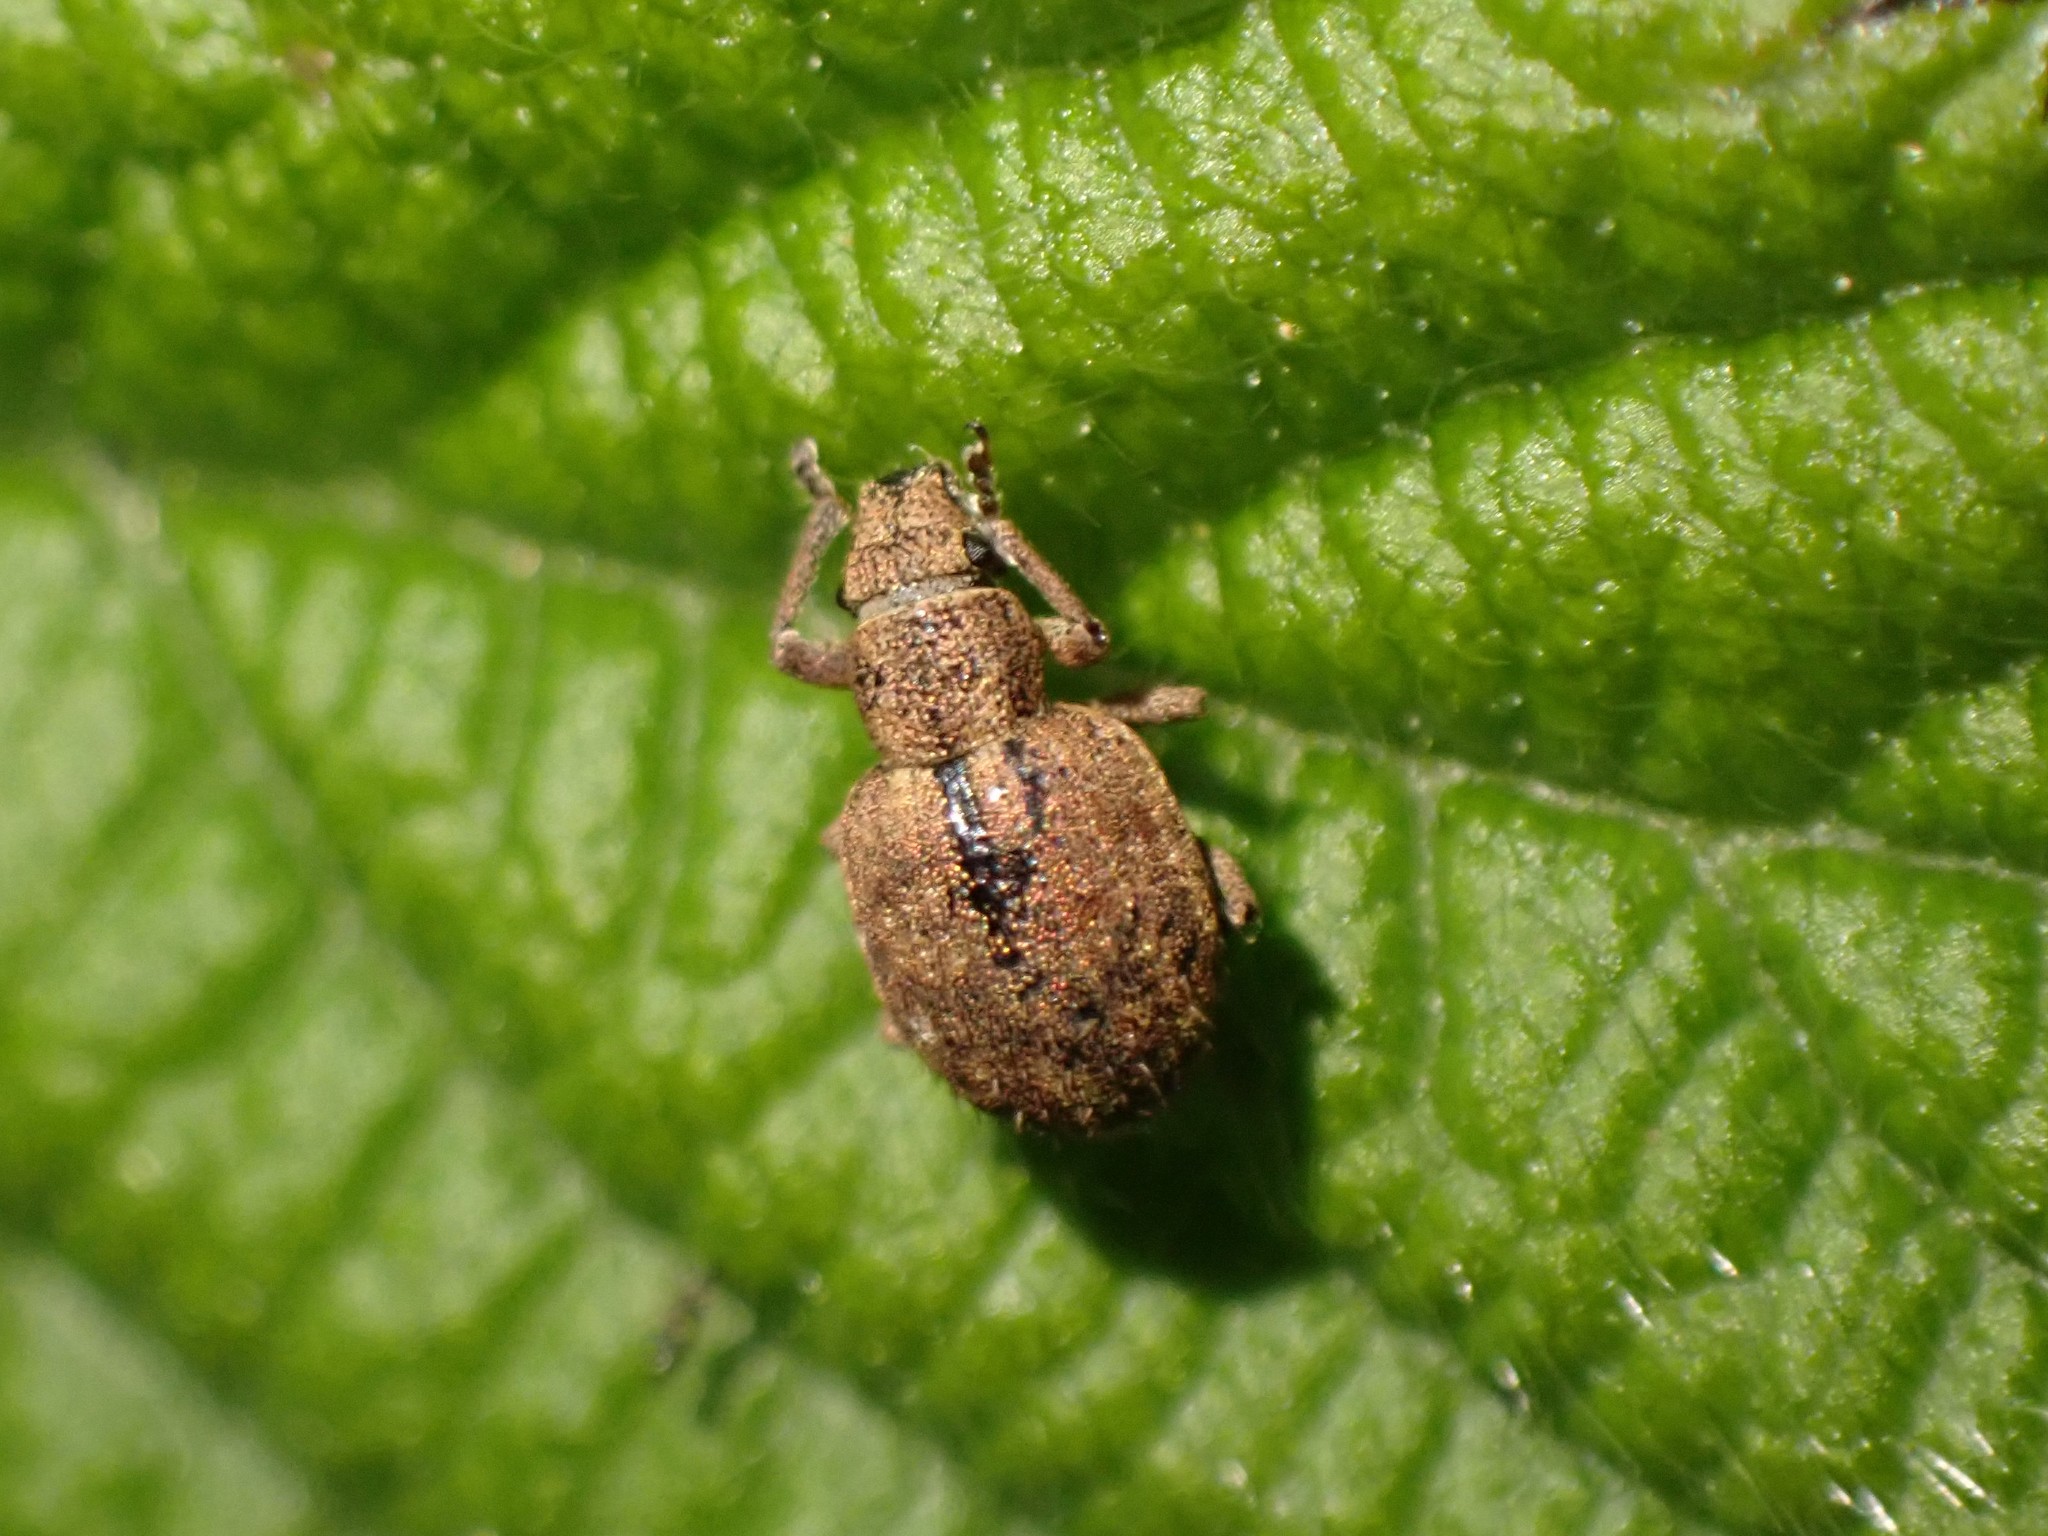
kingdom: Animalia
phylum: Arthropoda
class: Insecta
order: Coleoptera
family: Curculionidae
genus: Strophosoma
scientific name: Strophosoma melanogrammum
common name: Weevil
